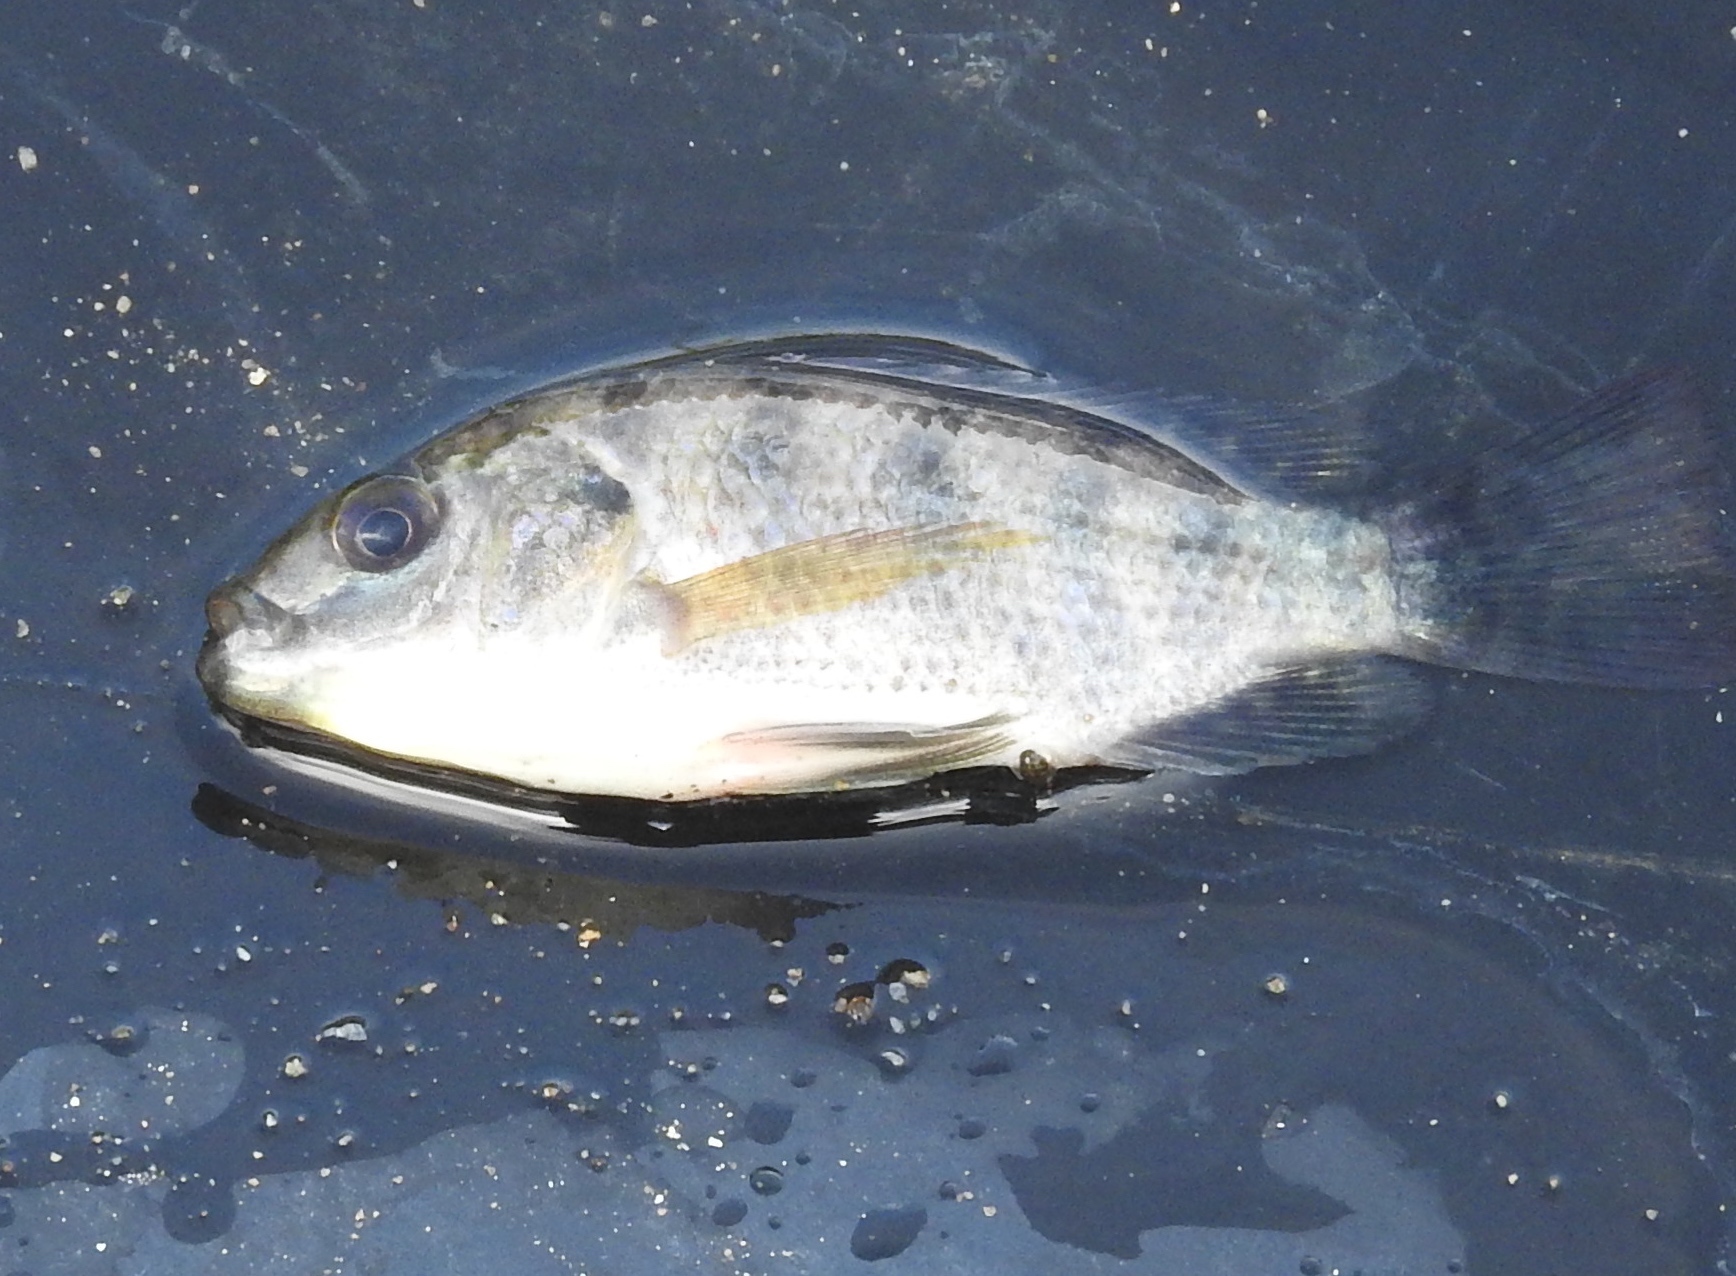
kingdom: Animalia
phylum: Chordata
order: Perciformes
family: Cichlidae
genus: Oreochromis
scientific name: Oreochromis niloticus
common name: Nile tilapia
